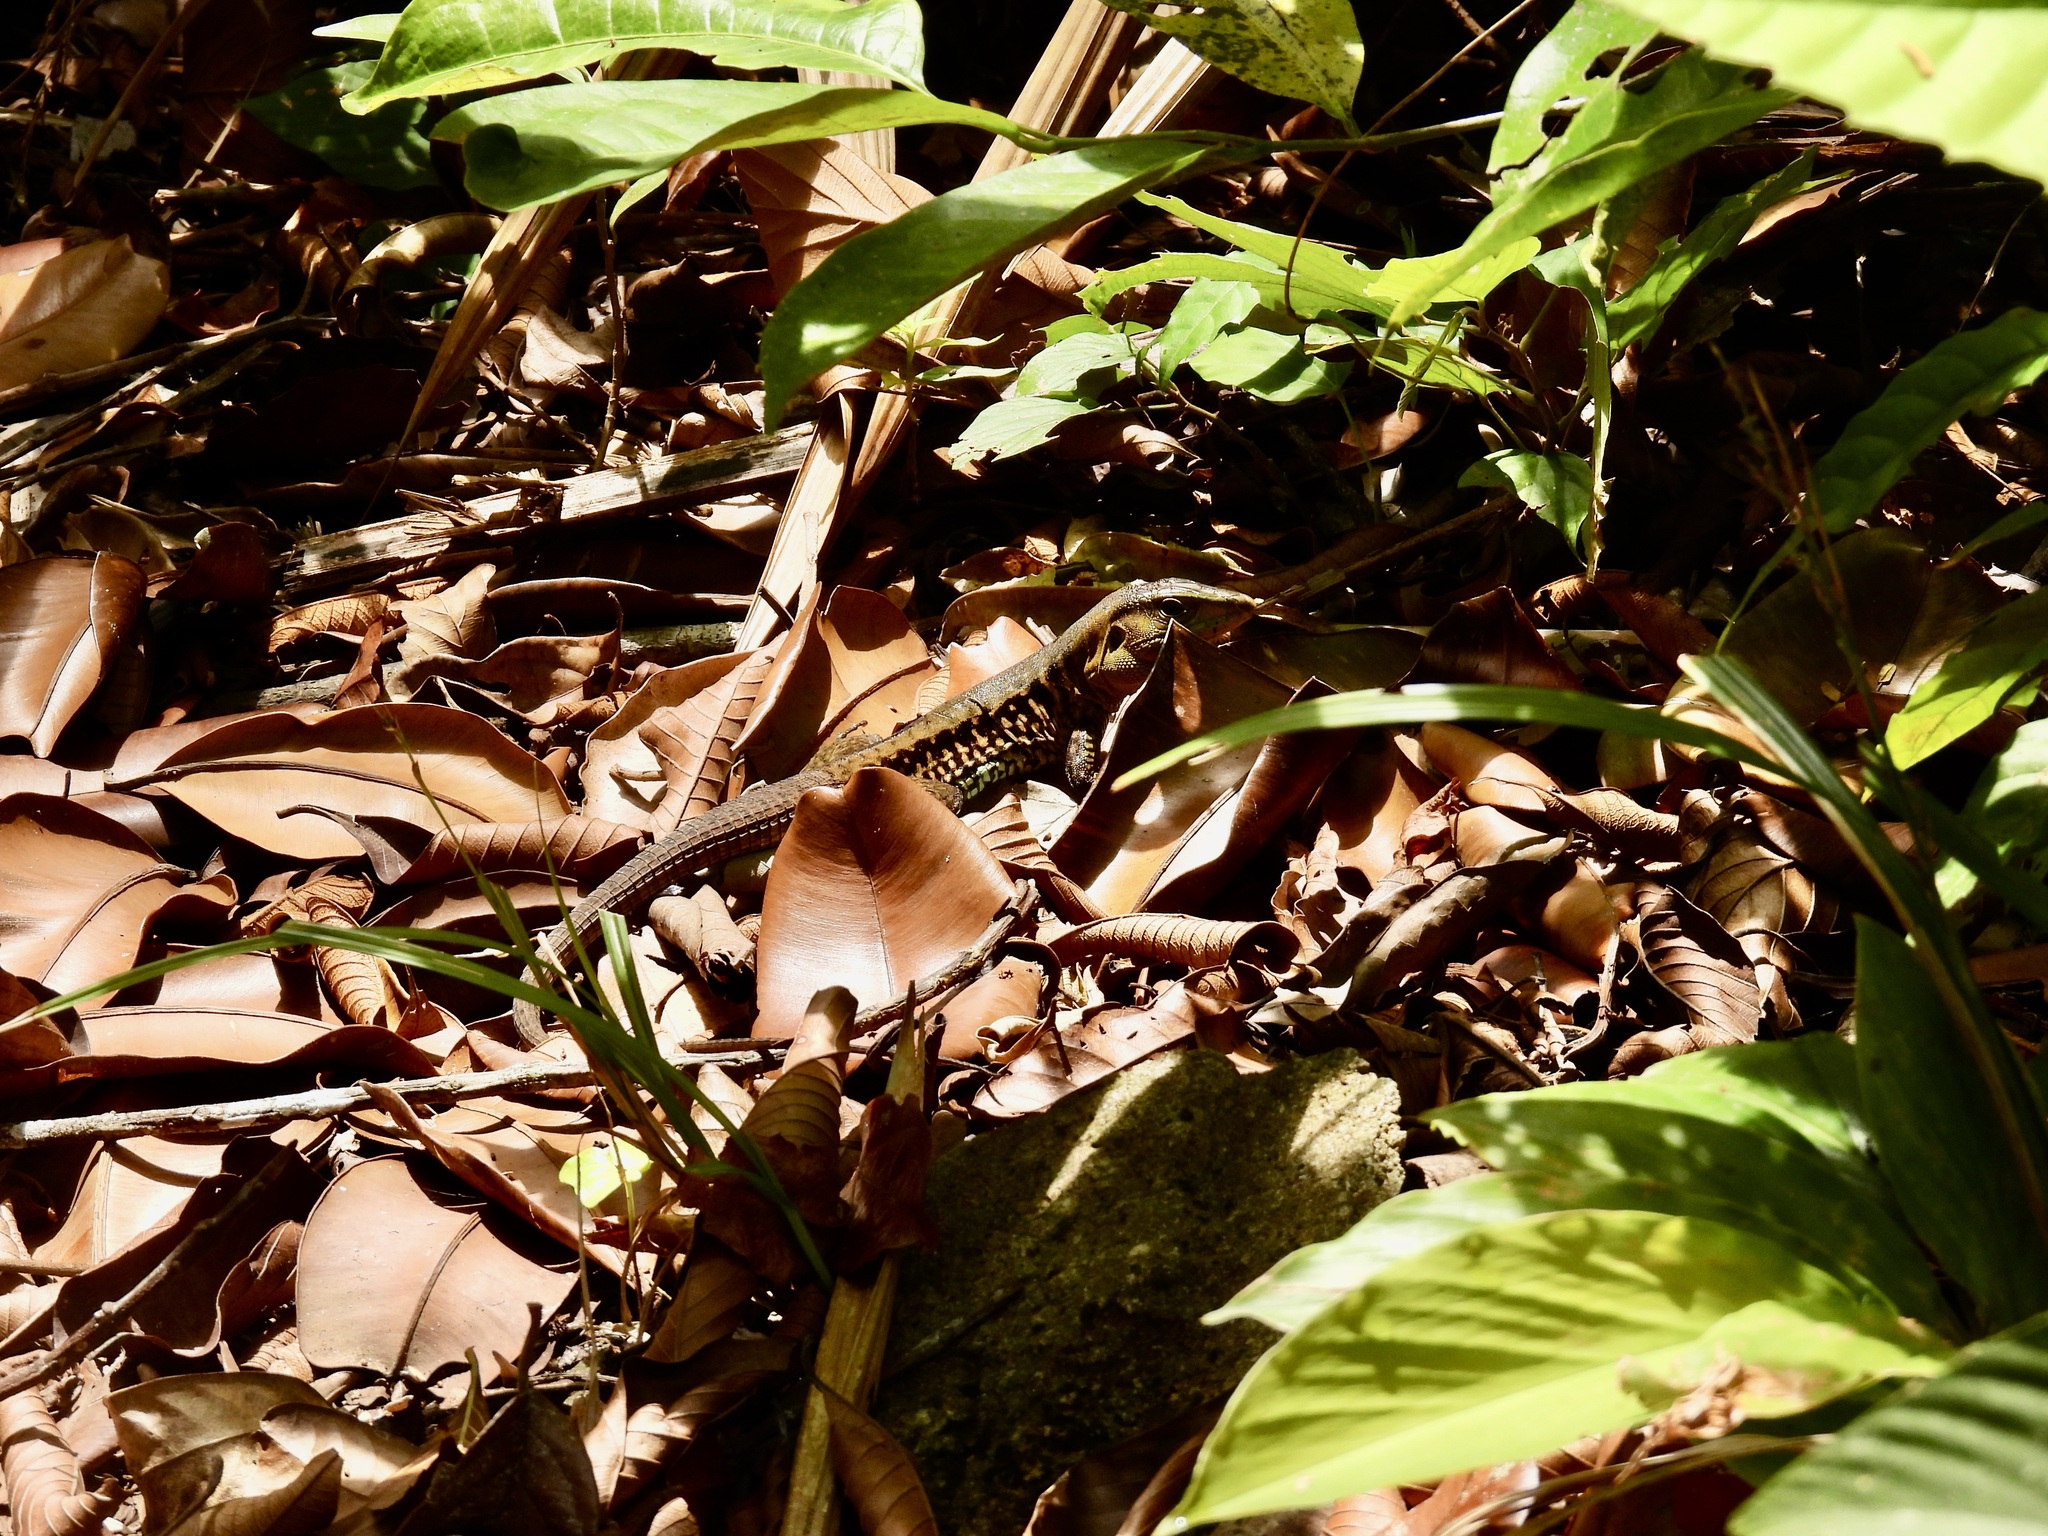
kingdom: Animalia
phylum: Chordata
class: Squamata
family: Teiidae
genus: Holcosus
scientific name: Holcosus quadrilineatus
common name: Four-lined ameiva
